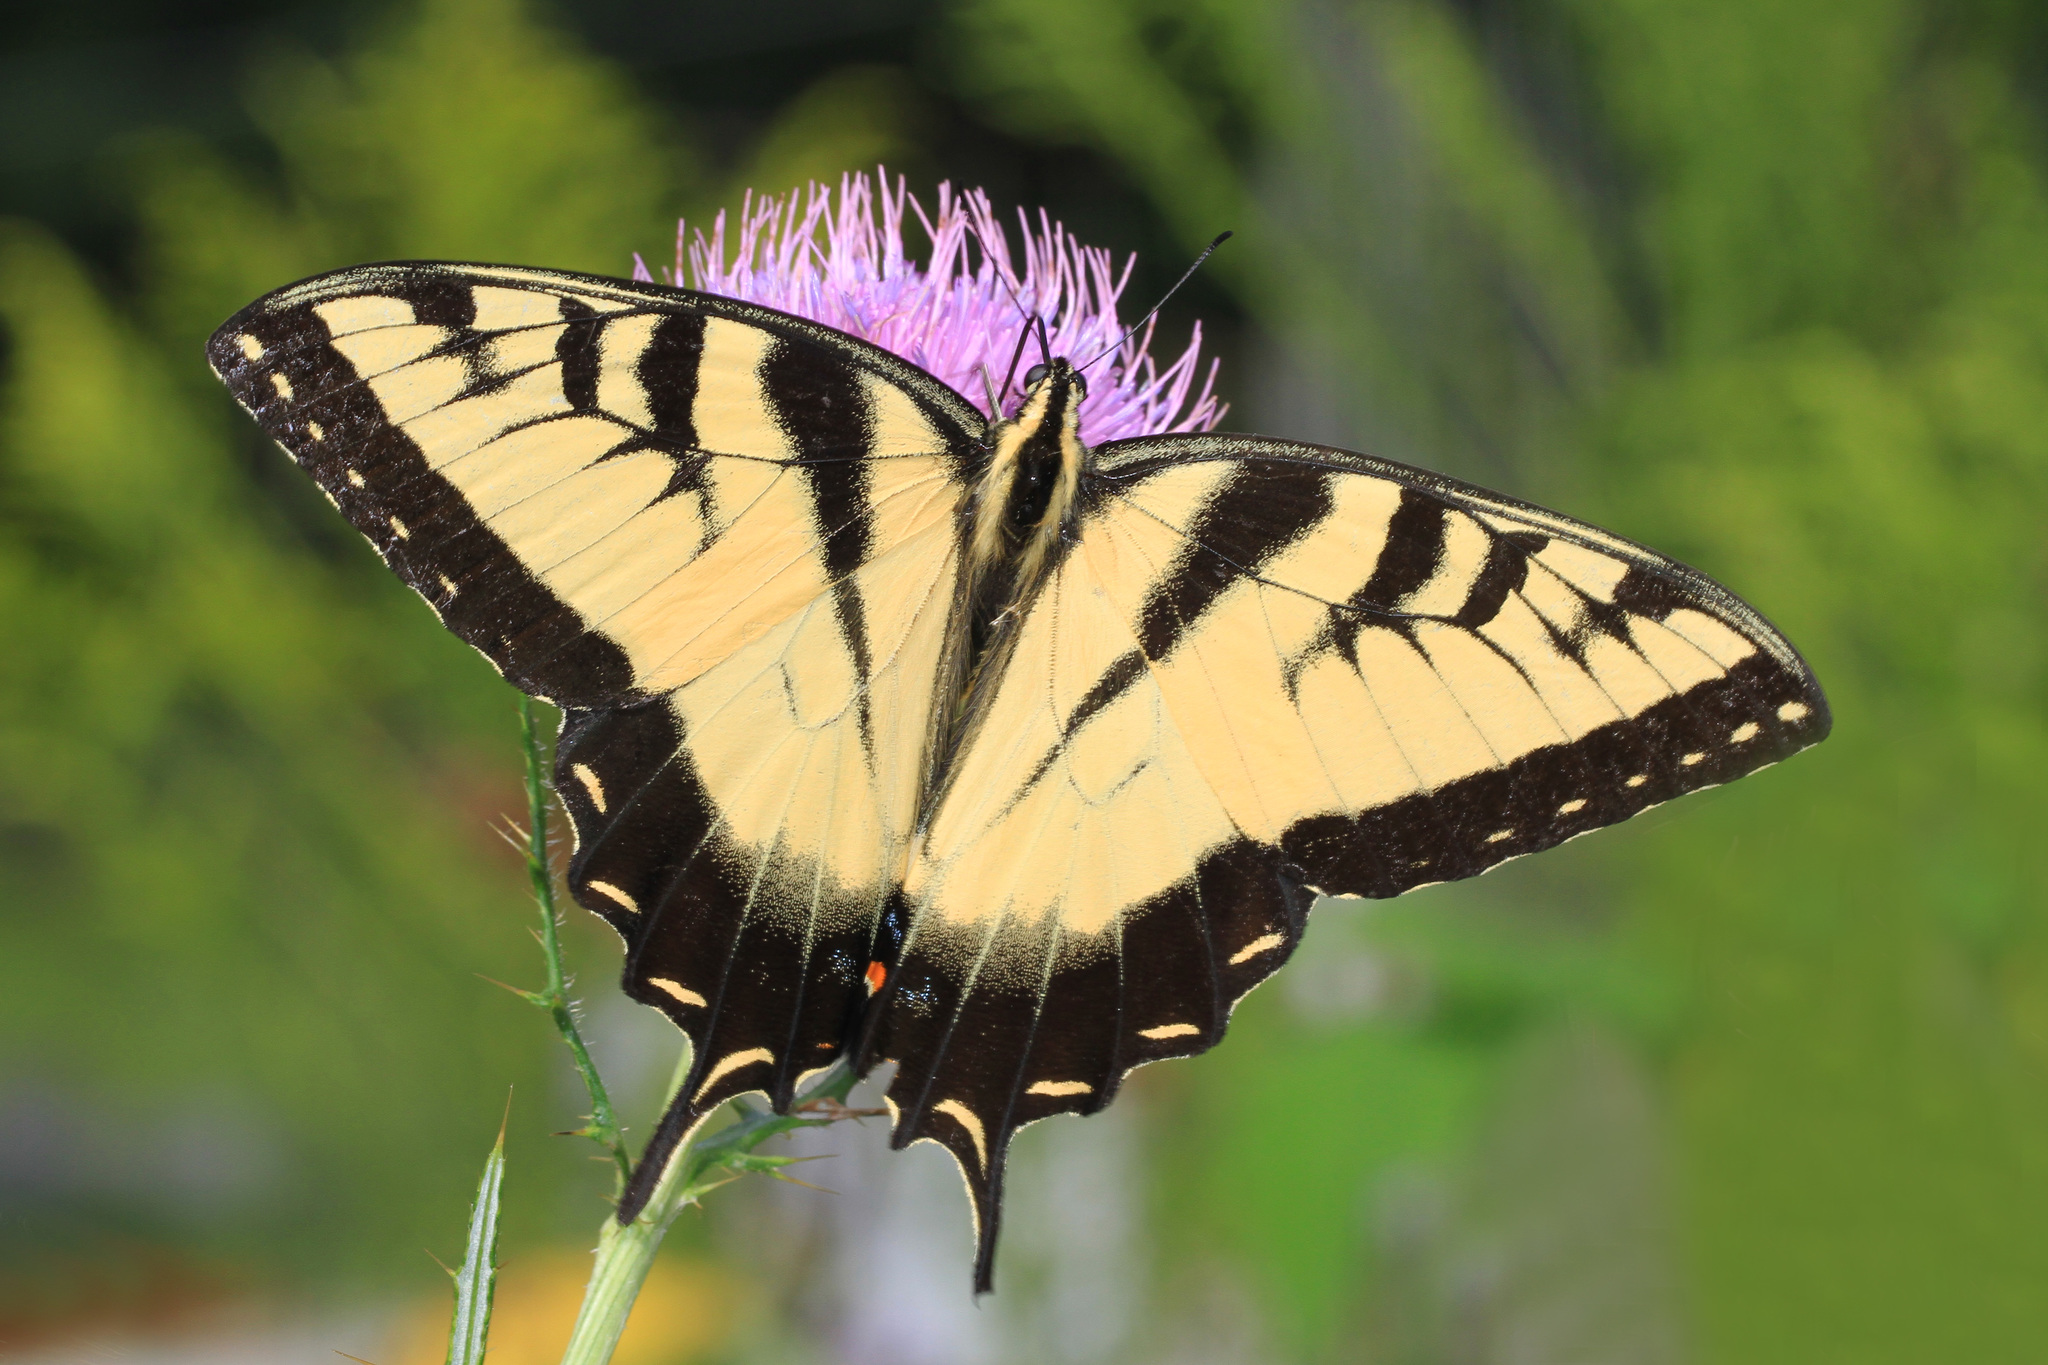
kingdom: Animalia
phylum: Arthropoda
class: Insecta
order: Lepidoptera
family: Papilionidae
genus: Papilio
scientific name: Papilio glaucus
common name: Tiger swallowtail
